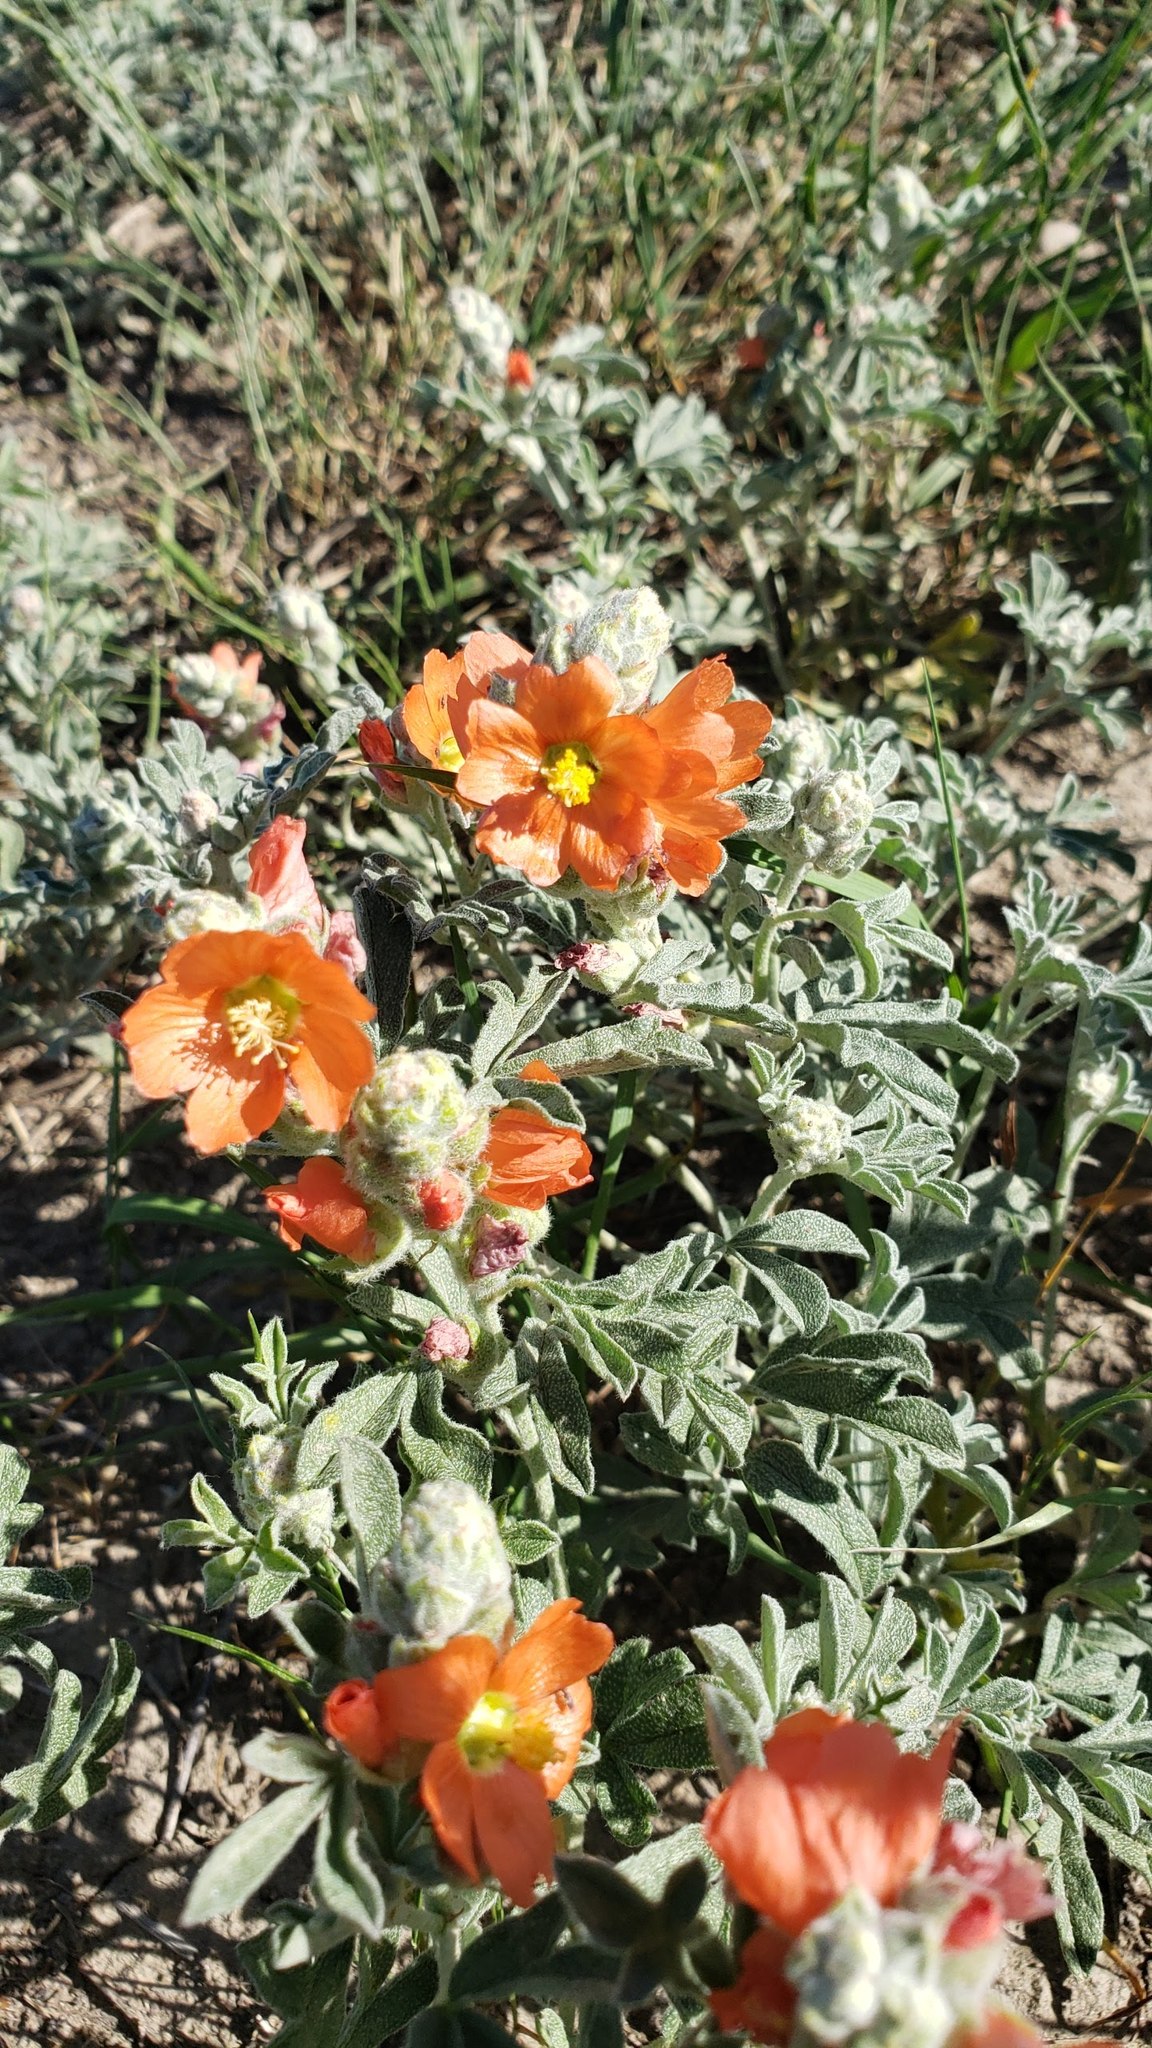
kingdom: Plantae
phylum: Tracheophyta
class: Magnoliopsida
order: Malvales
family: Malvaceae
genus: Sphaeralcea
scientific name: Sphaeralcea coccinea
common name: Moss-rose
